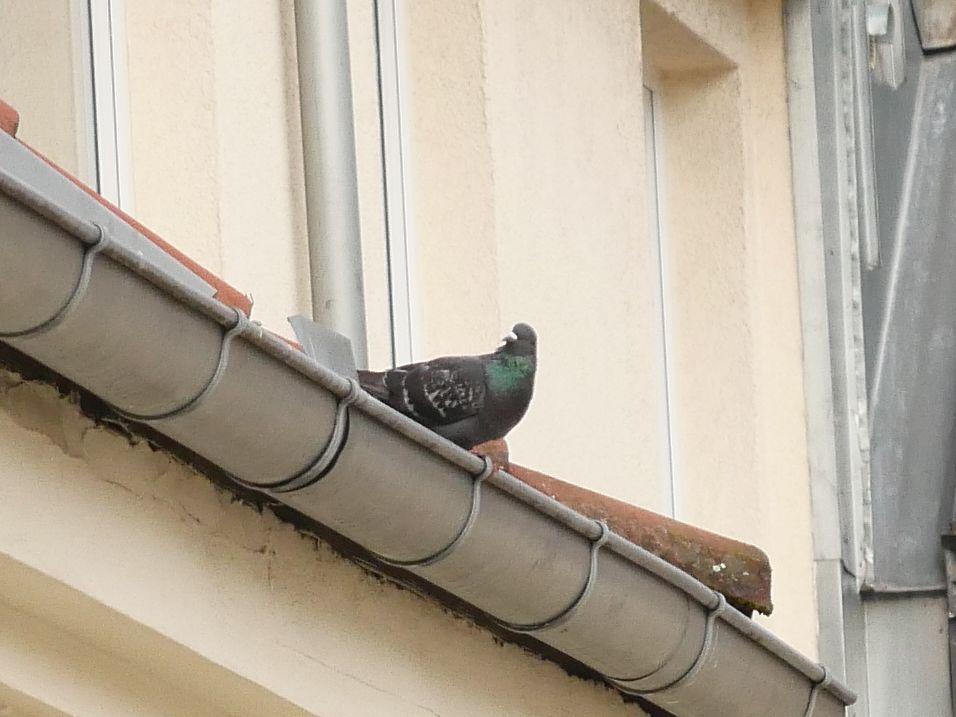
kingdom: Animalia
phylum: Chordata
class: Aves
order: Columbiformes
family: Columbidae
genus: Columba
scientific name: Columba livia
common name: Rock pigeon
